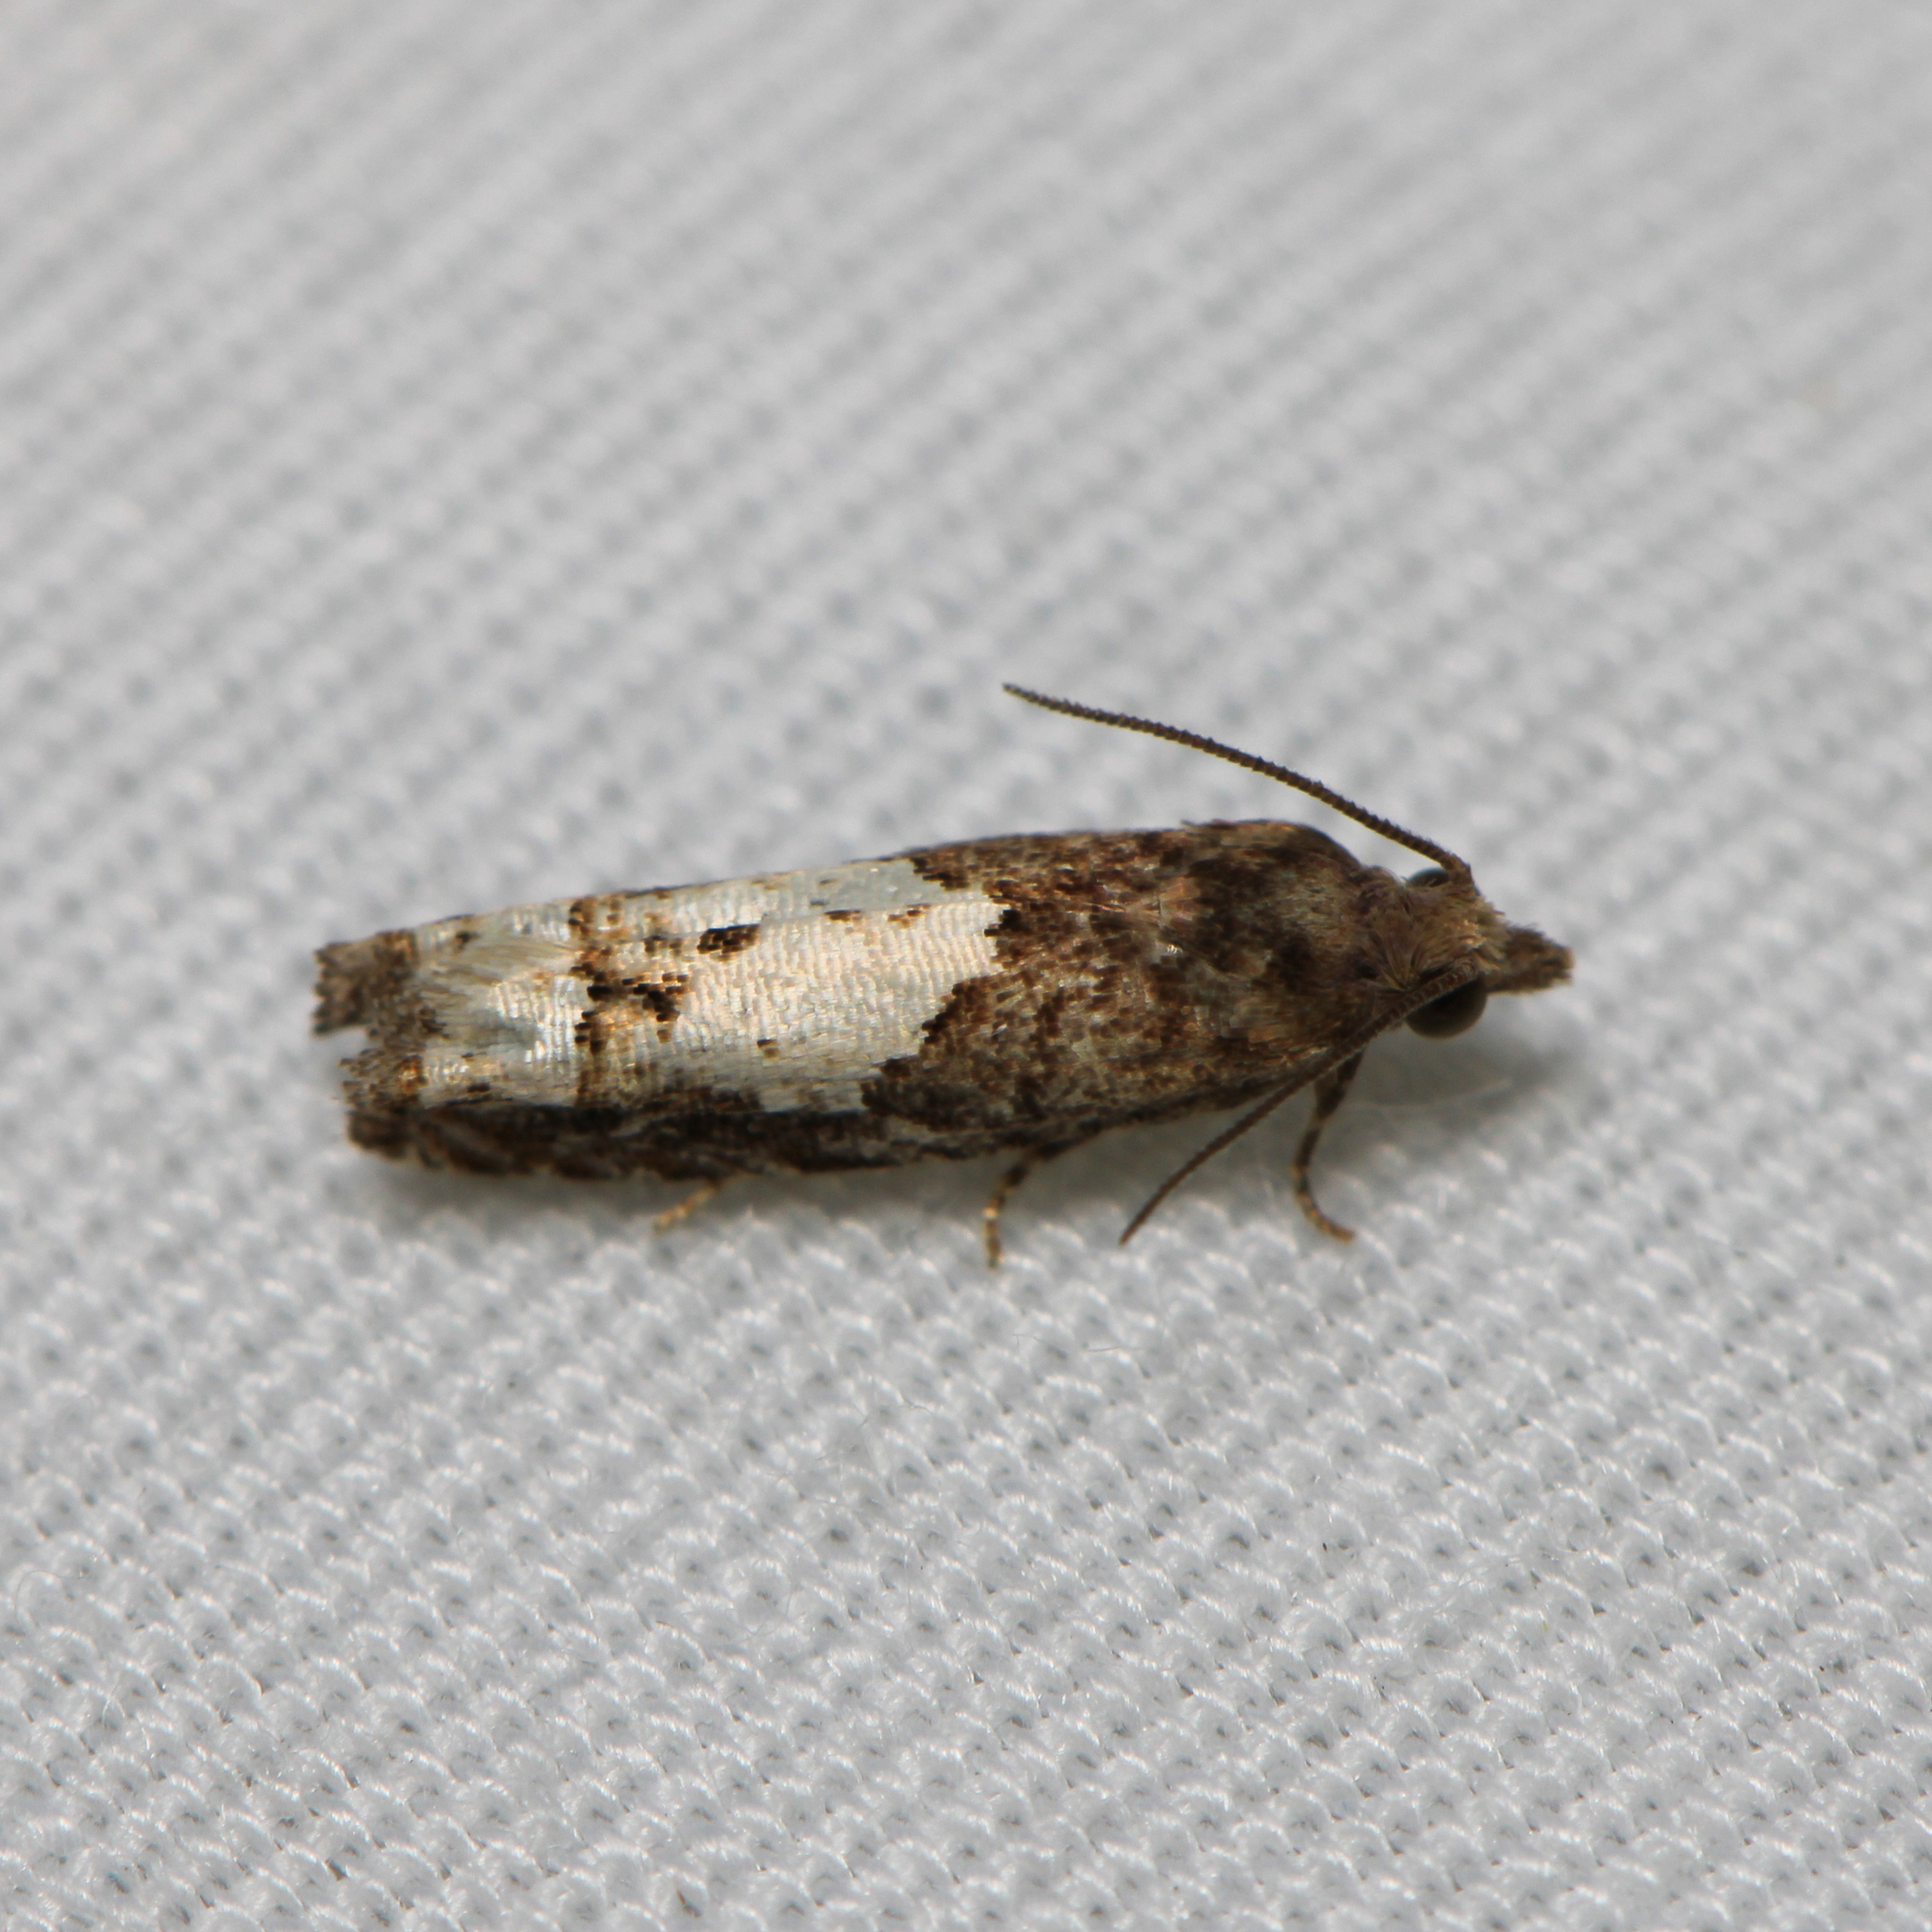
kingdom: Animalia
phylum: Arthropoda
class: Insecta
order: Lepidoptera
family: Tortricidae
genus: Eucosma
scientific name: Eucosma parmatana
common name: Aster eucosma moth
